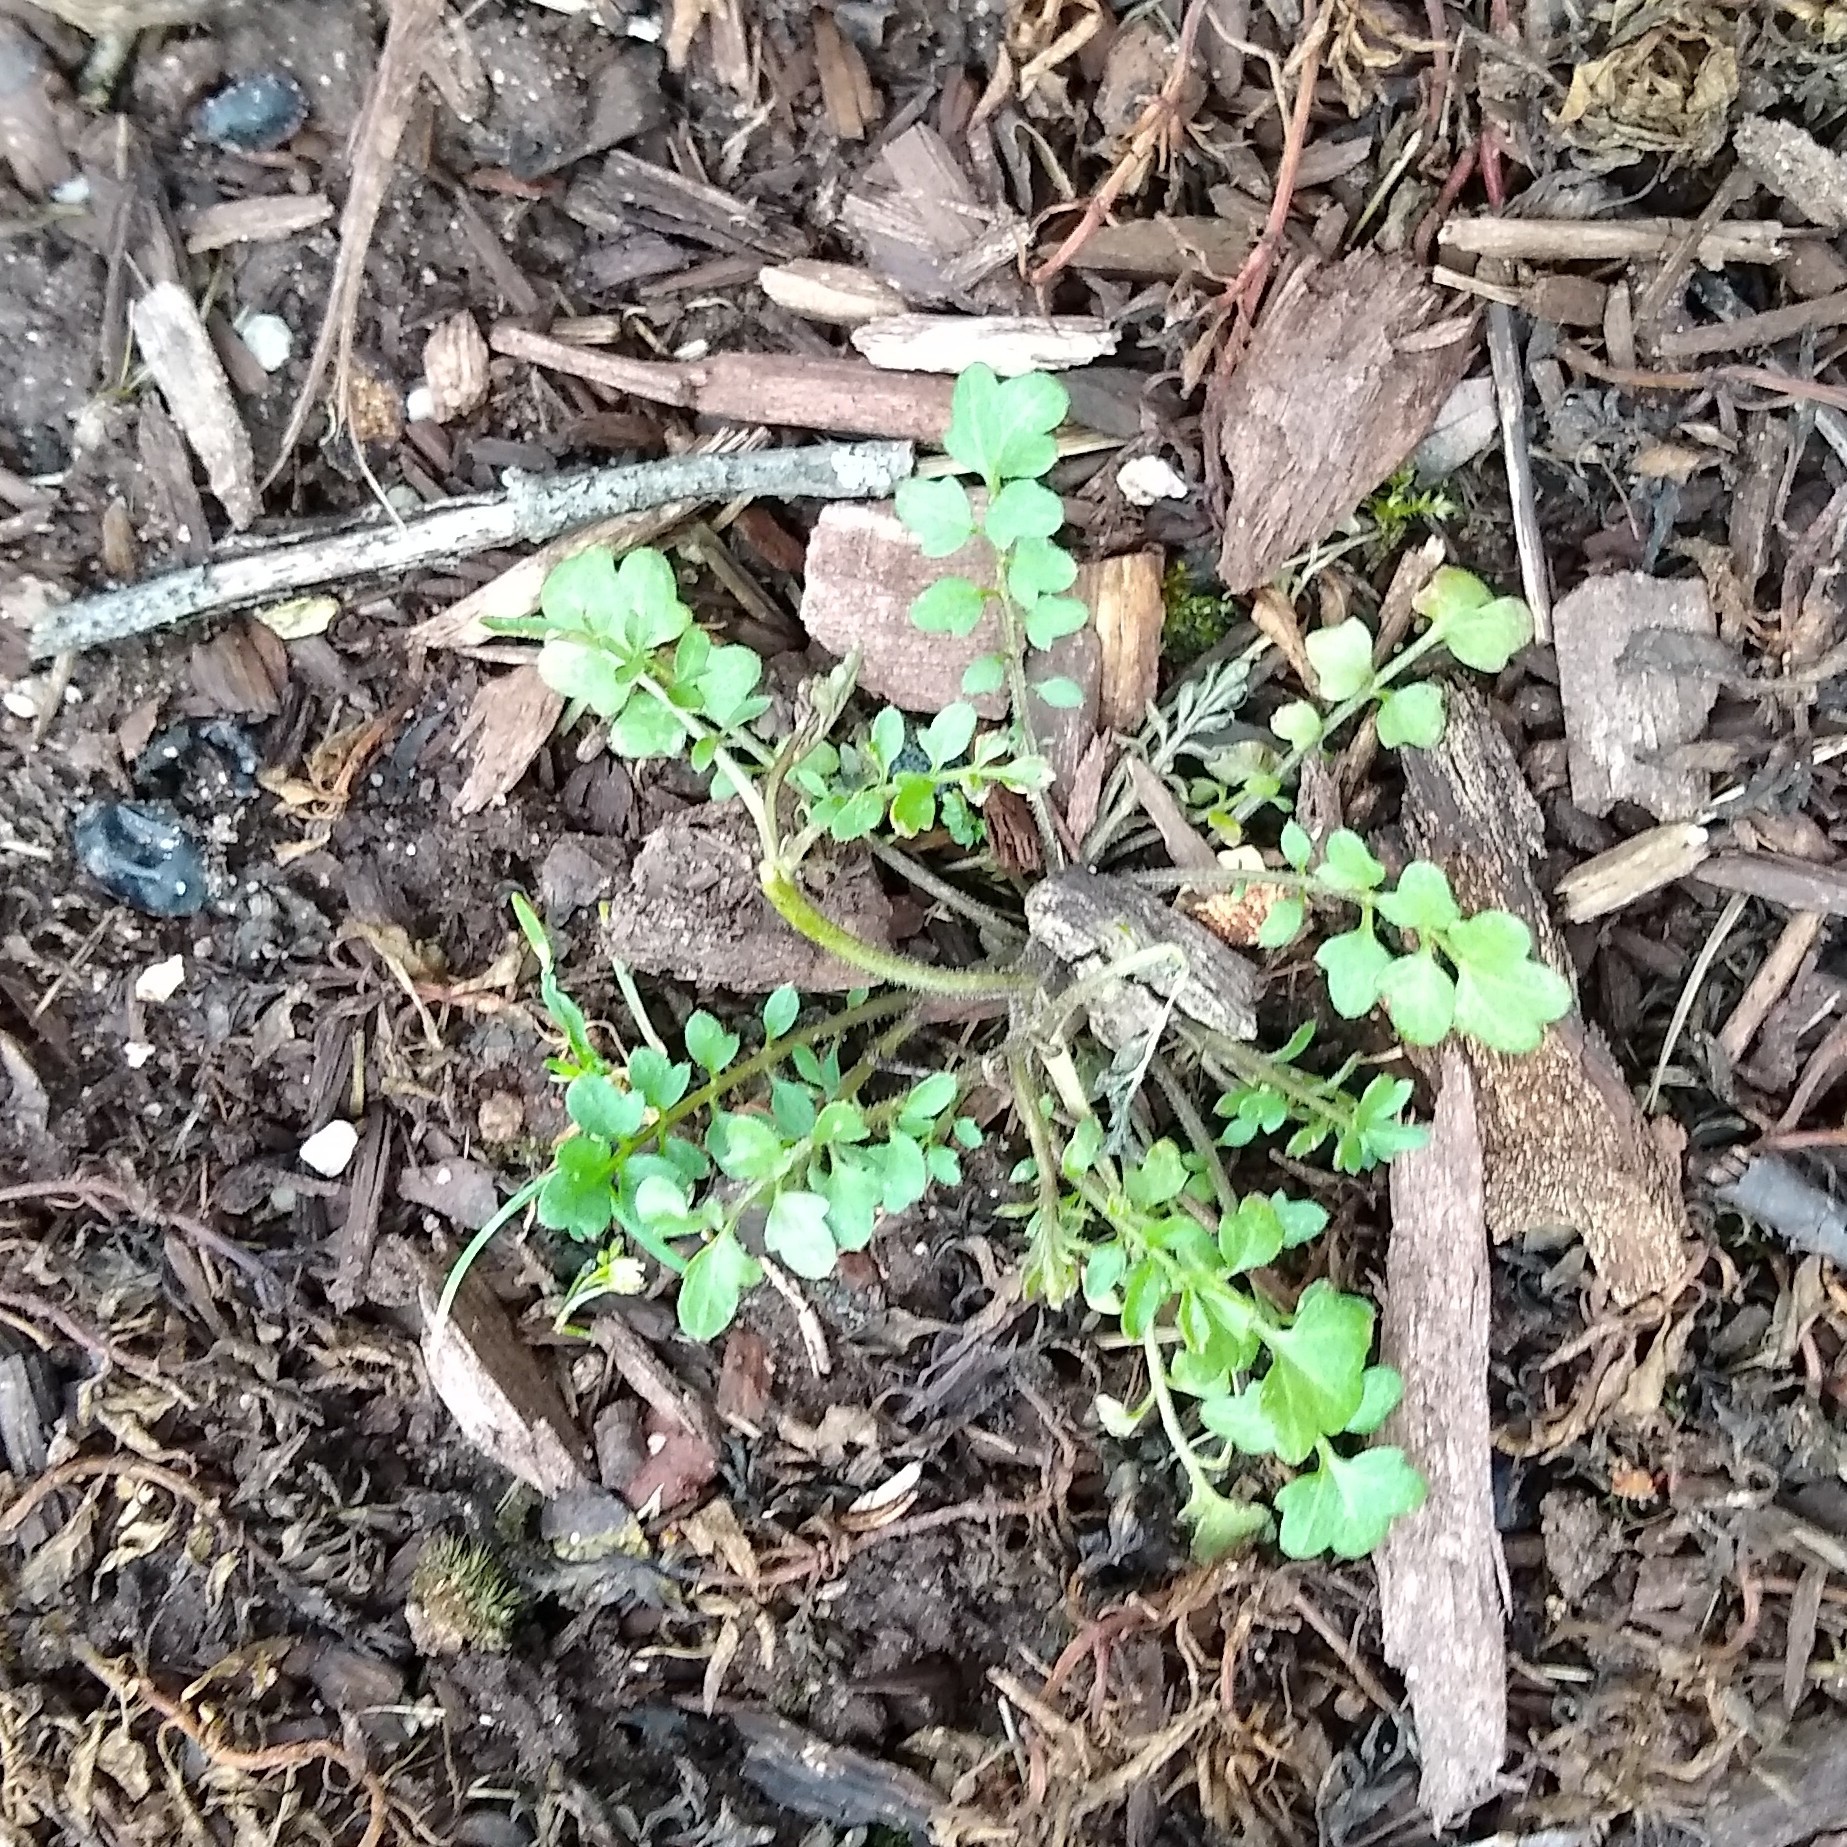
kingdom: Plantae
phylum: Tracheophyta
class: Magnoliopsida
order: Brassicales
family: Brassicaceae
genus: Cardamine
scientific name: Cardamine hirsuta
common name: Hairy bittercress
